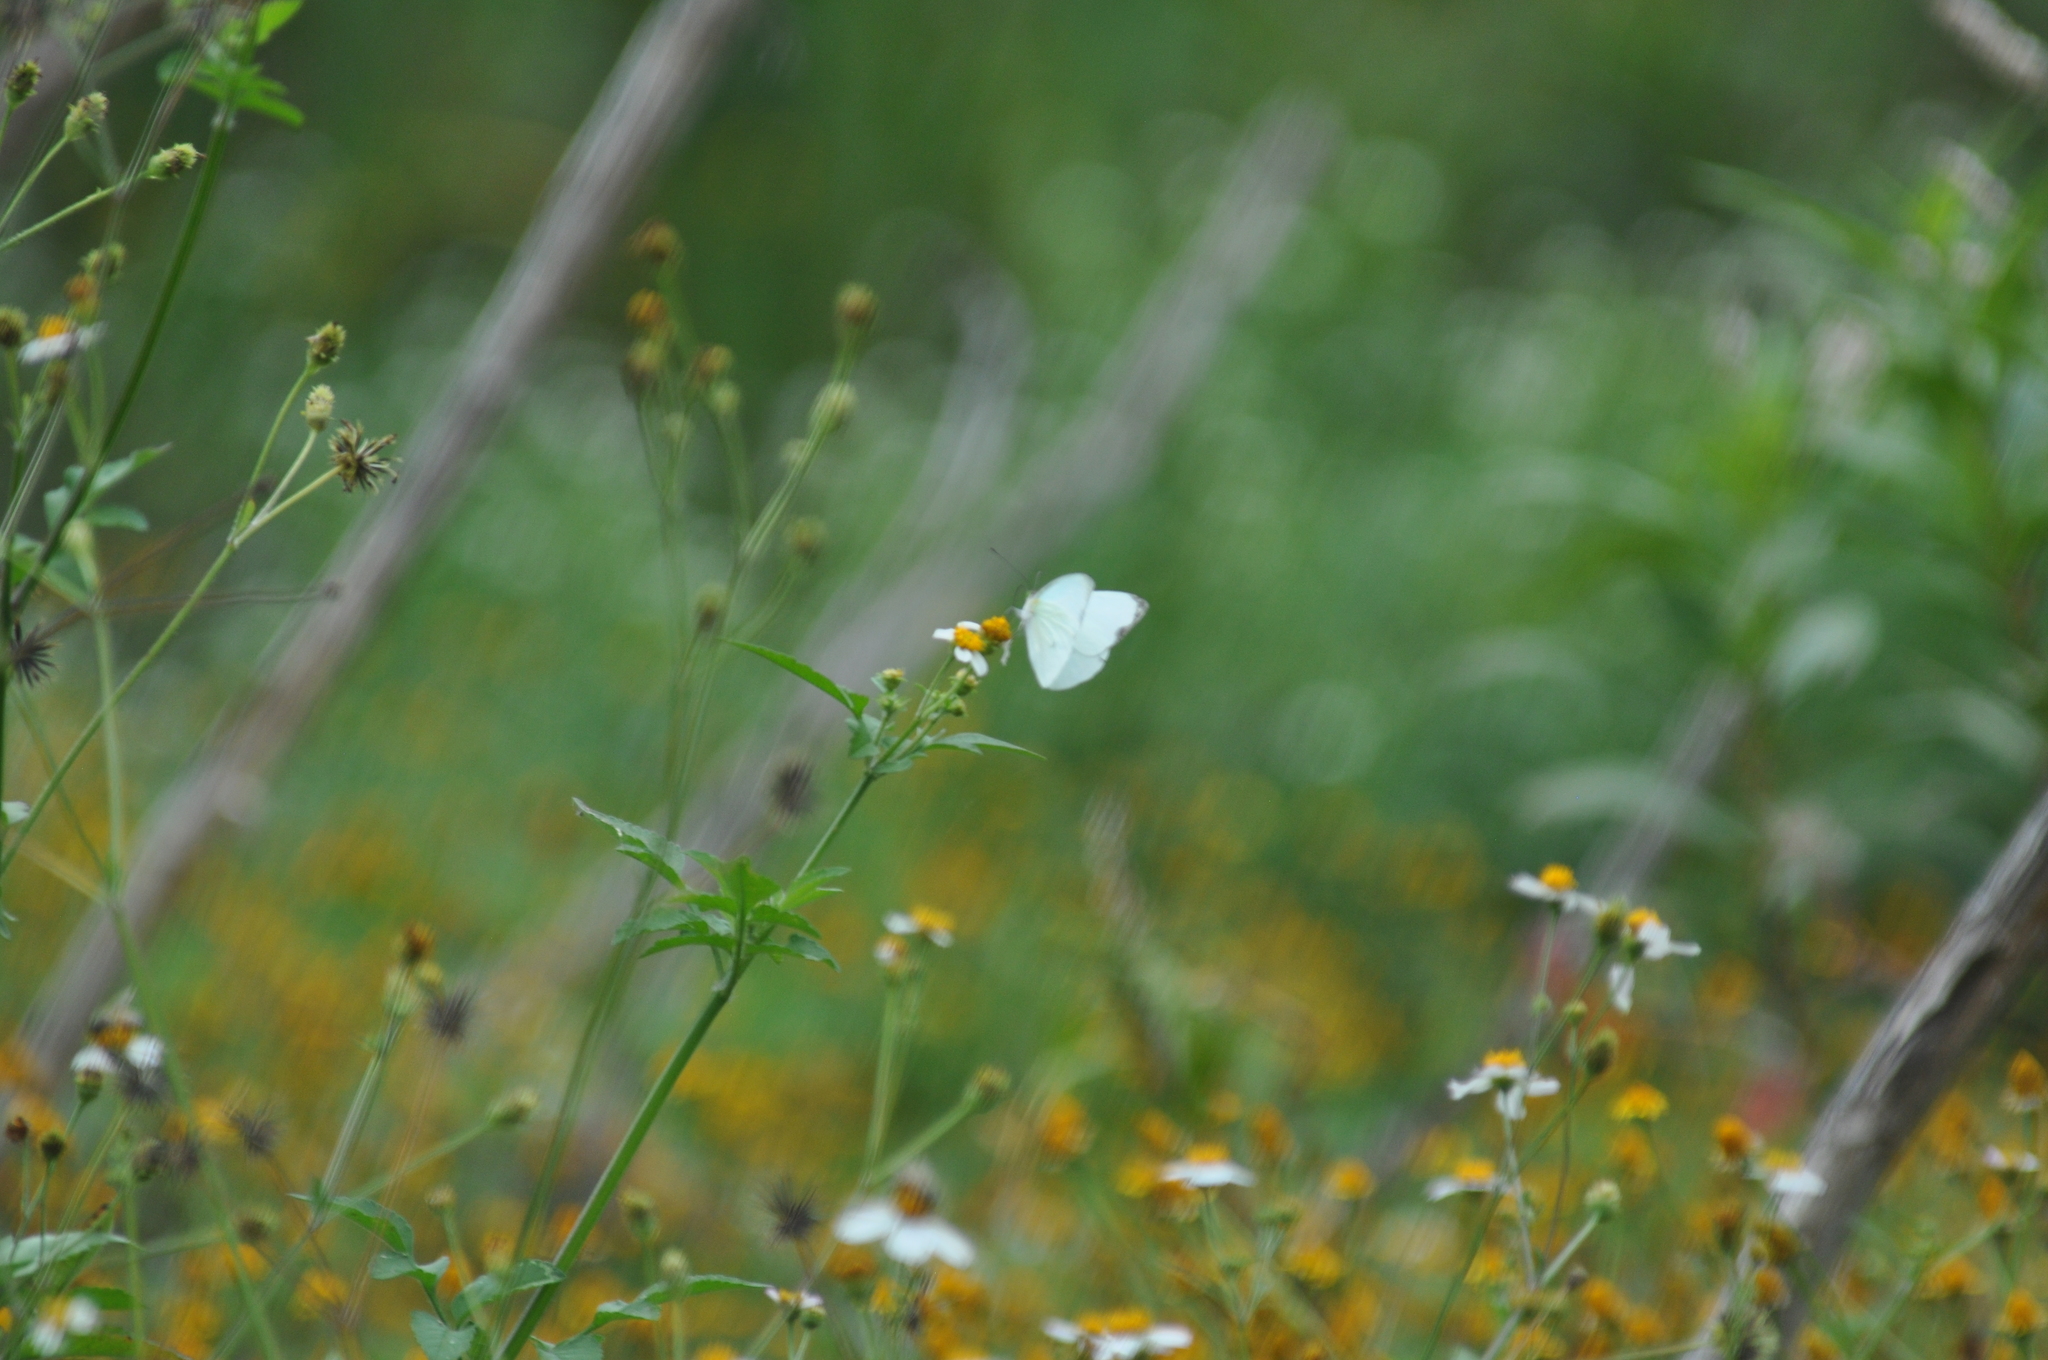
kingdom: Animalia
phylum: Arthropoda
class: Insecta
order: Lepidoptera
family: Pieridae
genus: Leptophobia
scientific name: Leptophobia aripa
